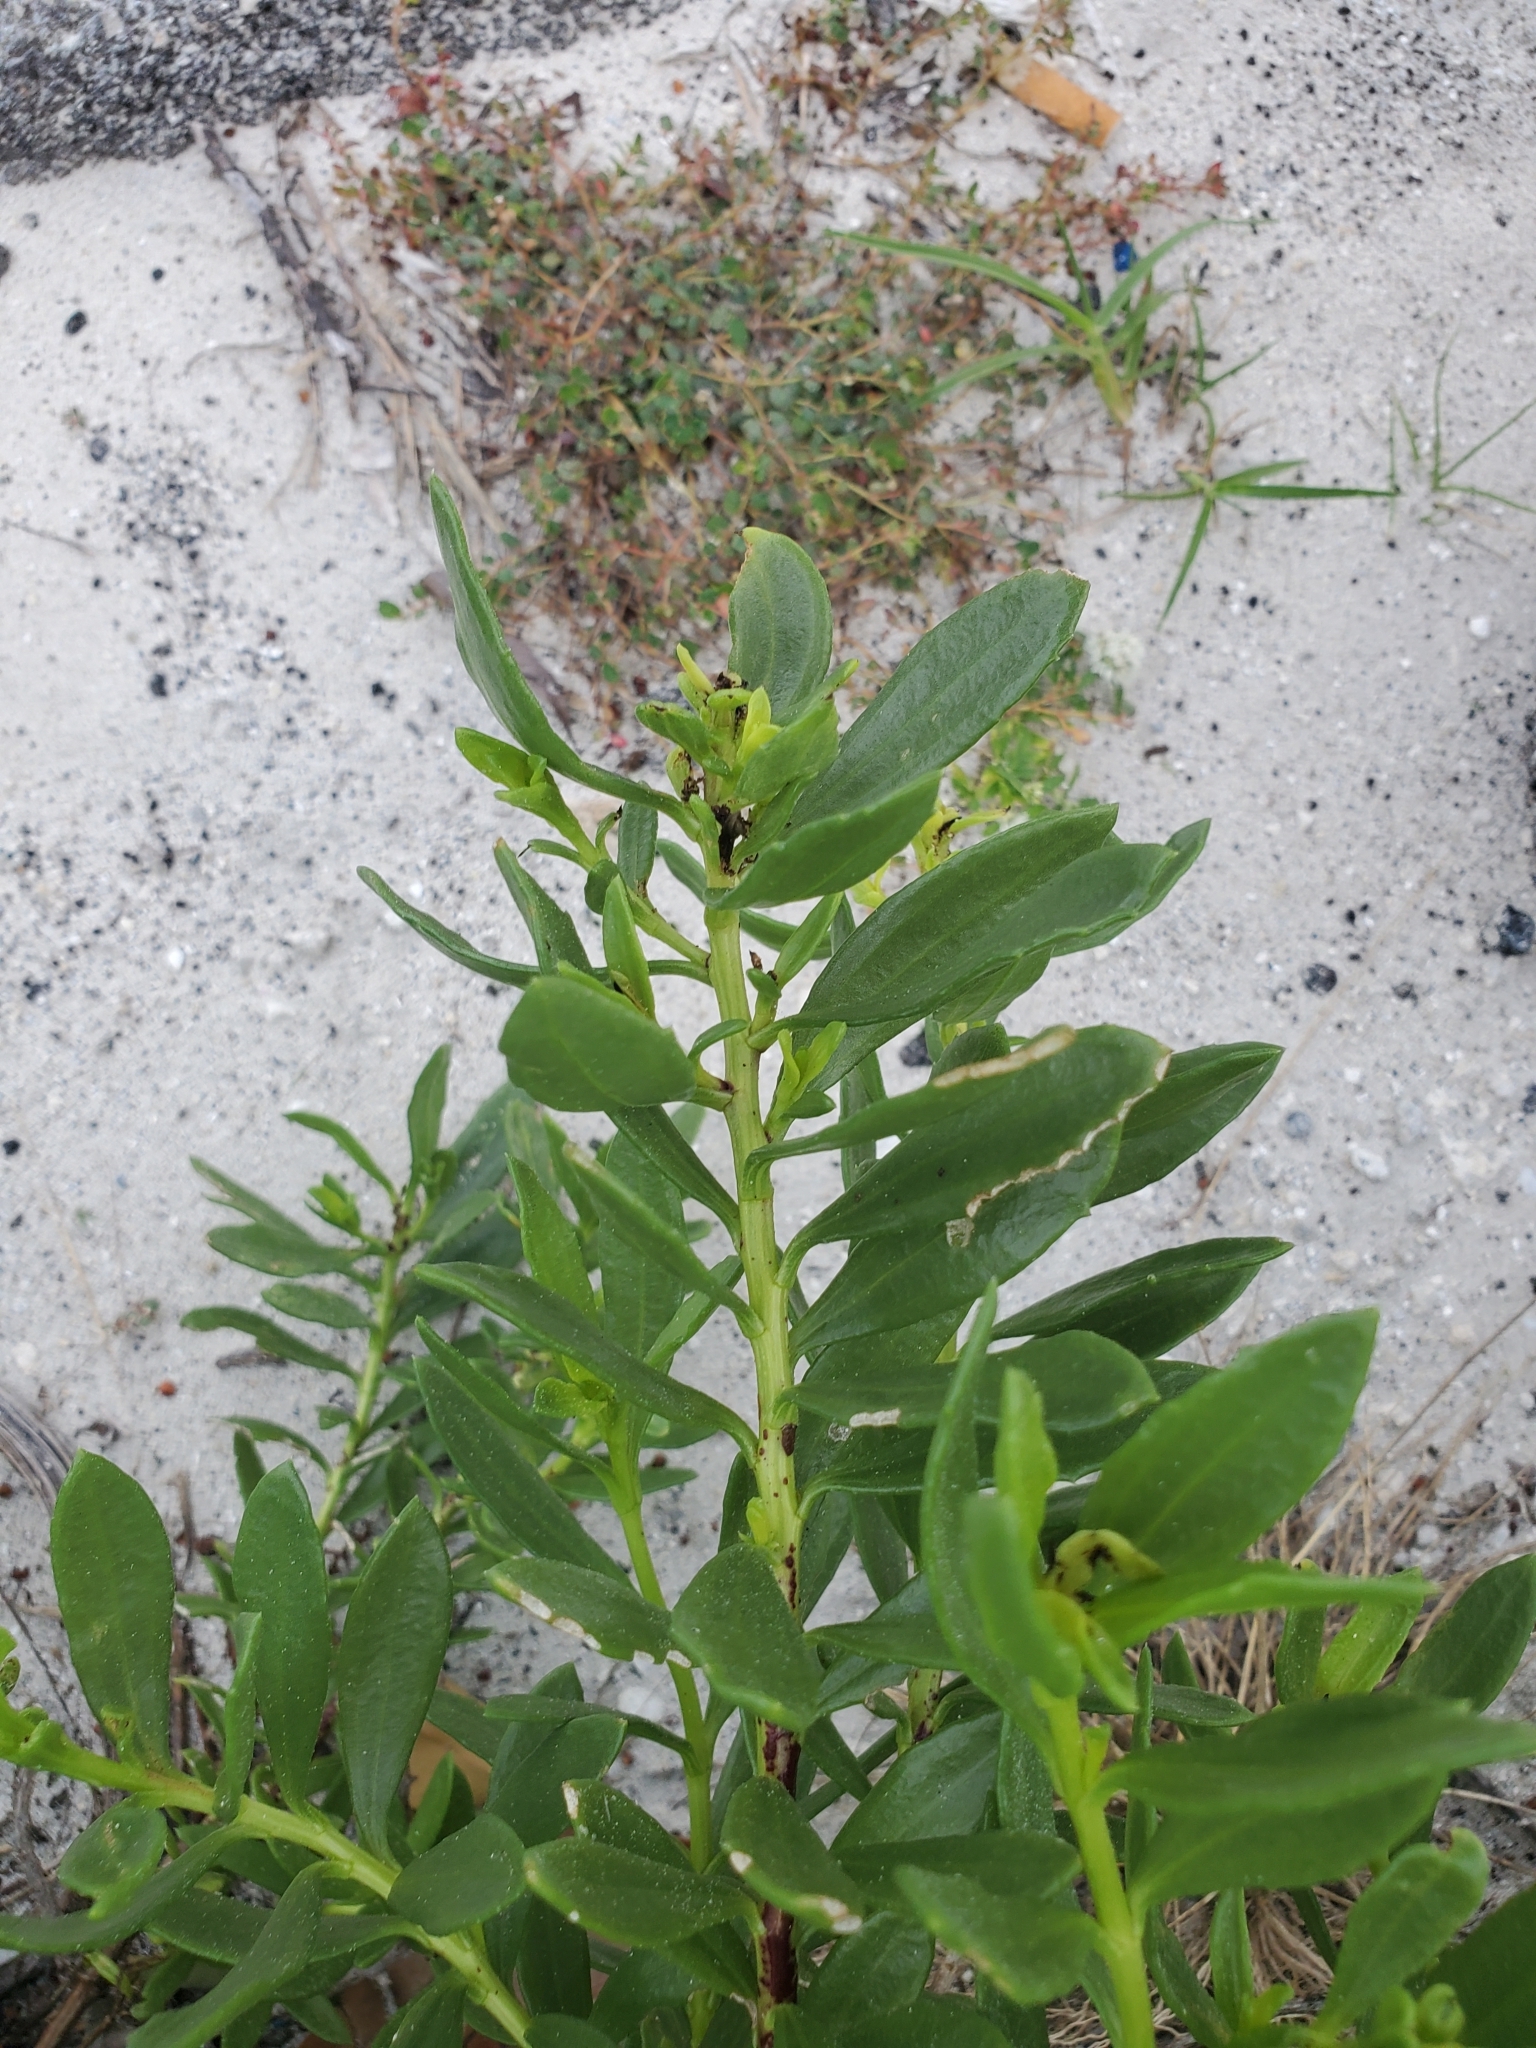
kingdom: Plantae
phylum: Tracheophyta
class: Magnoliopsida
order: Asterales
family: Asteraceae
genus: Iva
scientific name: Iva imbricata
